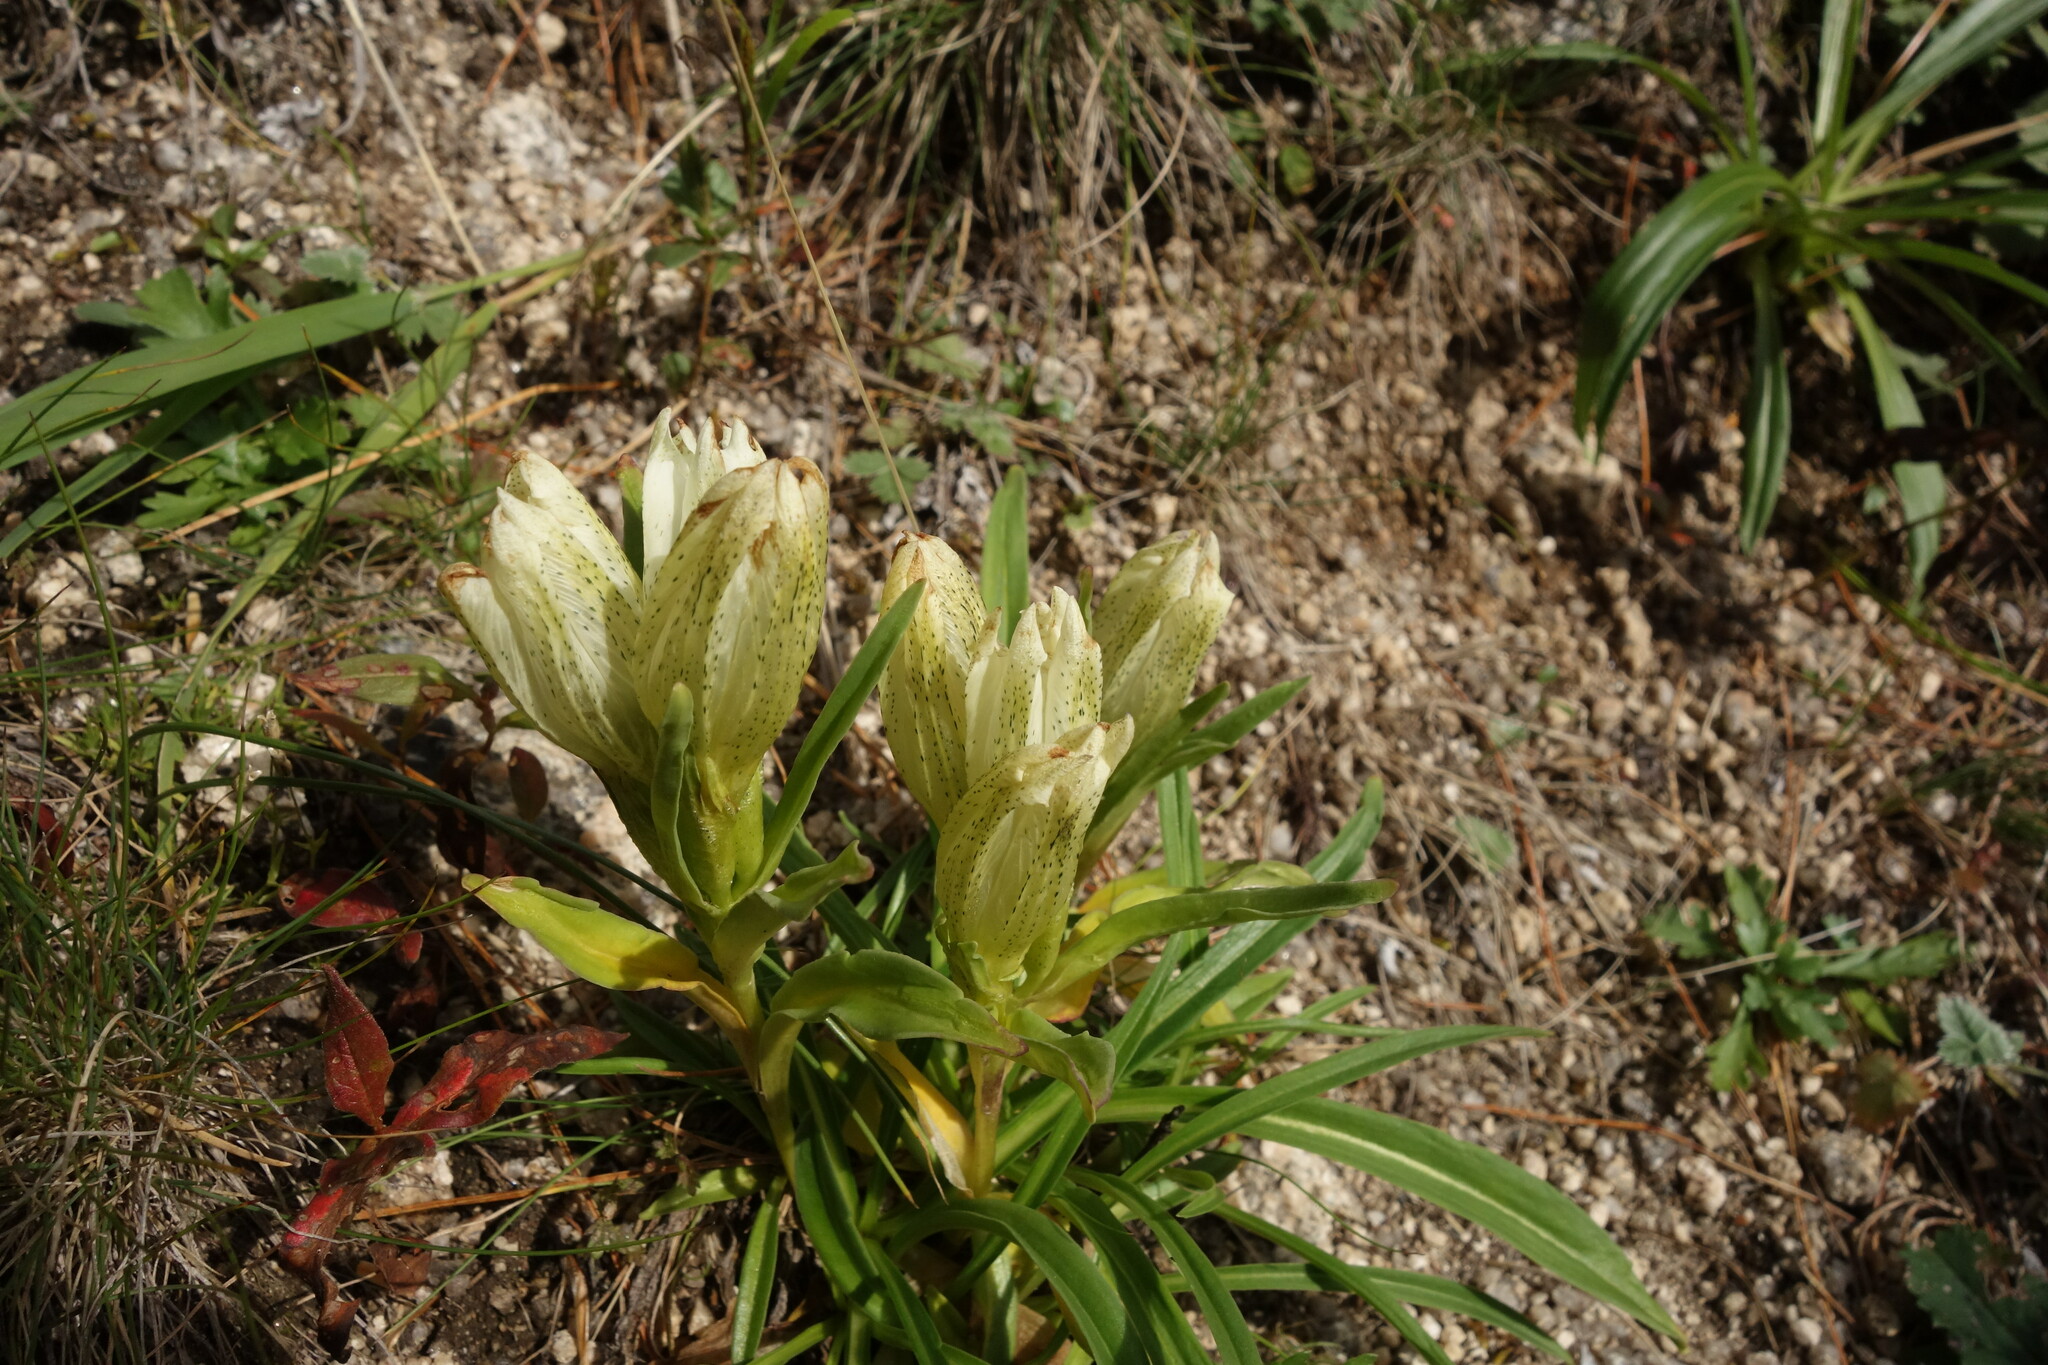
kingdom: Plantae
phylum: Tracheophyta
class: Magnoliopsida
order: Gentianales
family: Gentianaceae
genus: Gentiana
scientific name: Gentiana algida
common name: Arctic gentian
